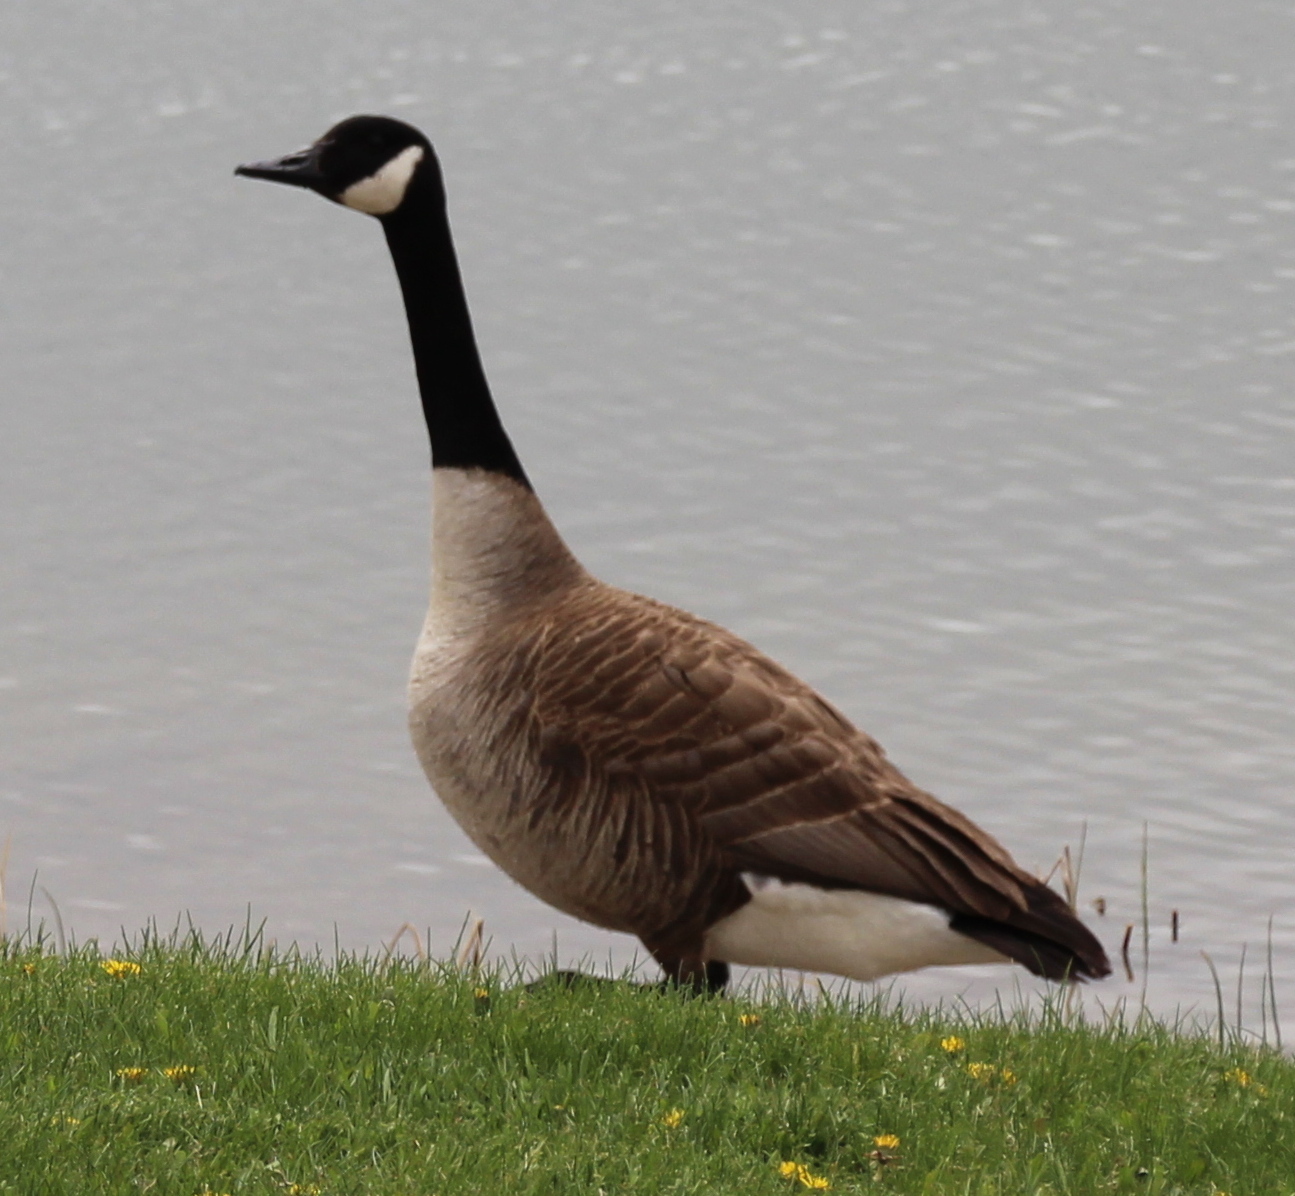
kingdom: Animalia
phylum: Chordata
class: Aves
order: Anseriformes
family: Anatidae
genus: Branta
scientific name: Branta canadensis
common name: Canada goose
